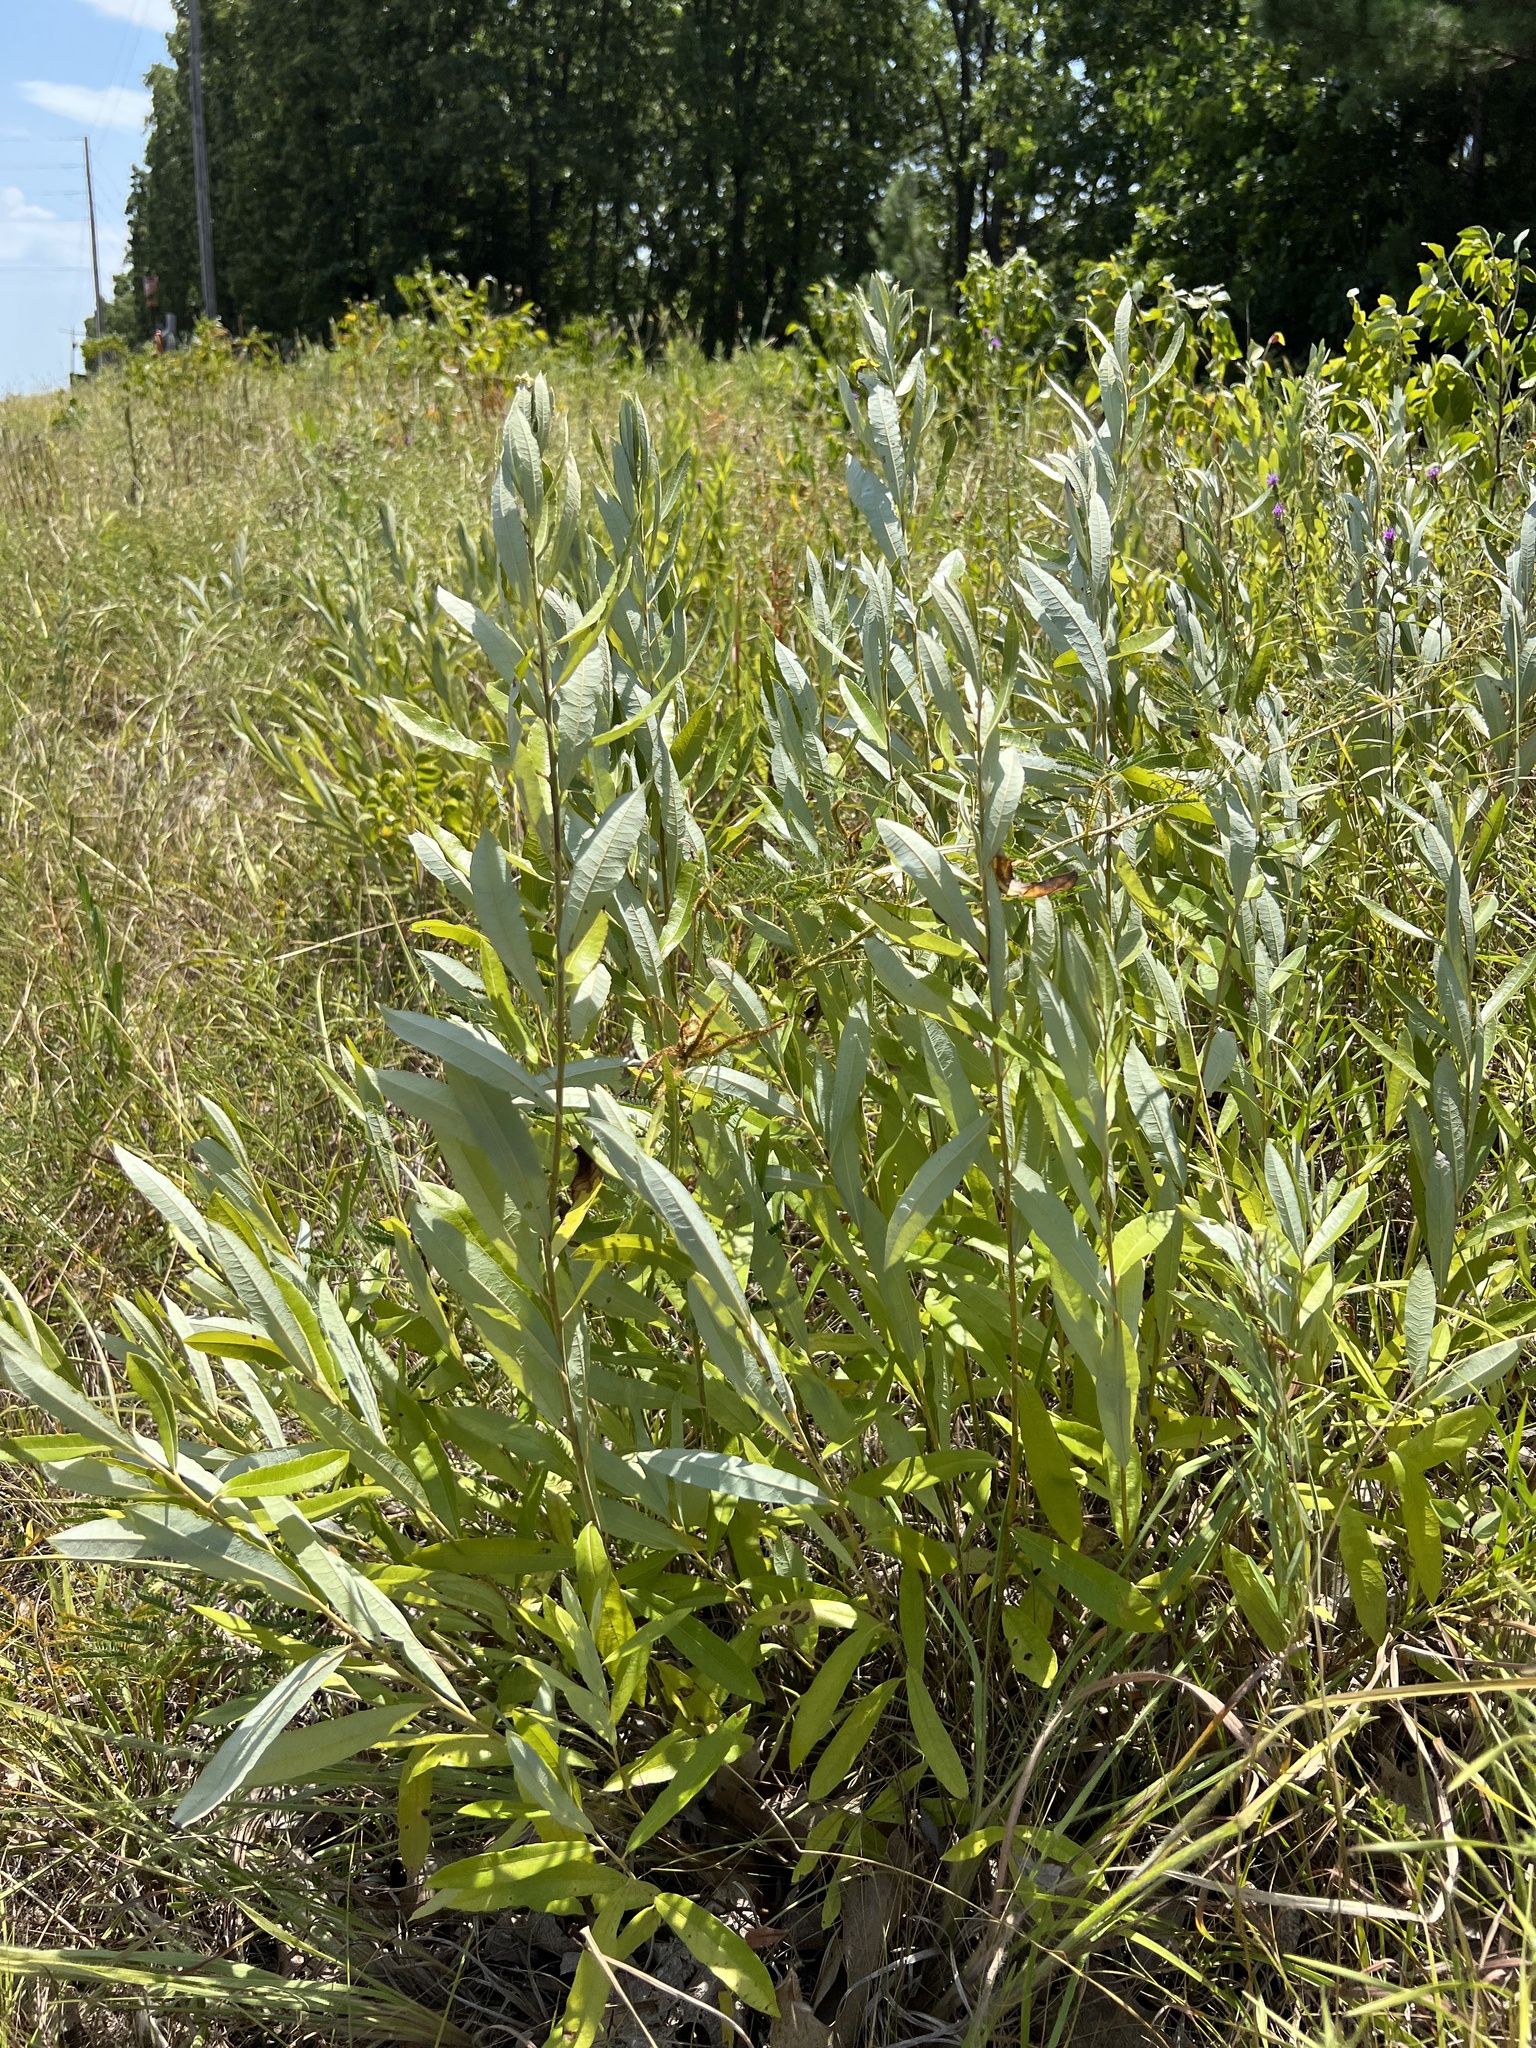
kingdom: Plantae
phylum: Tracheophyta
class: Magnoliopsida
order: Malpighiales
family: Salicaceae
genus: Salix
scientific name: Salix humilis
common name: Prairie willow
